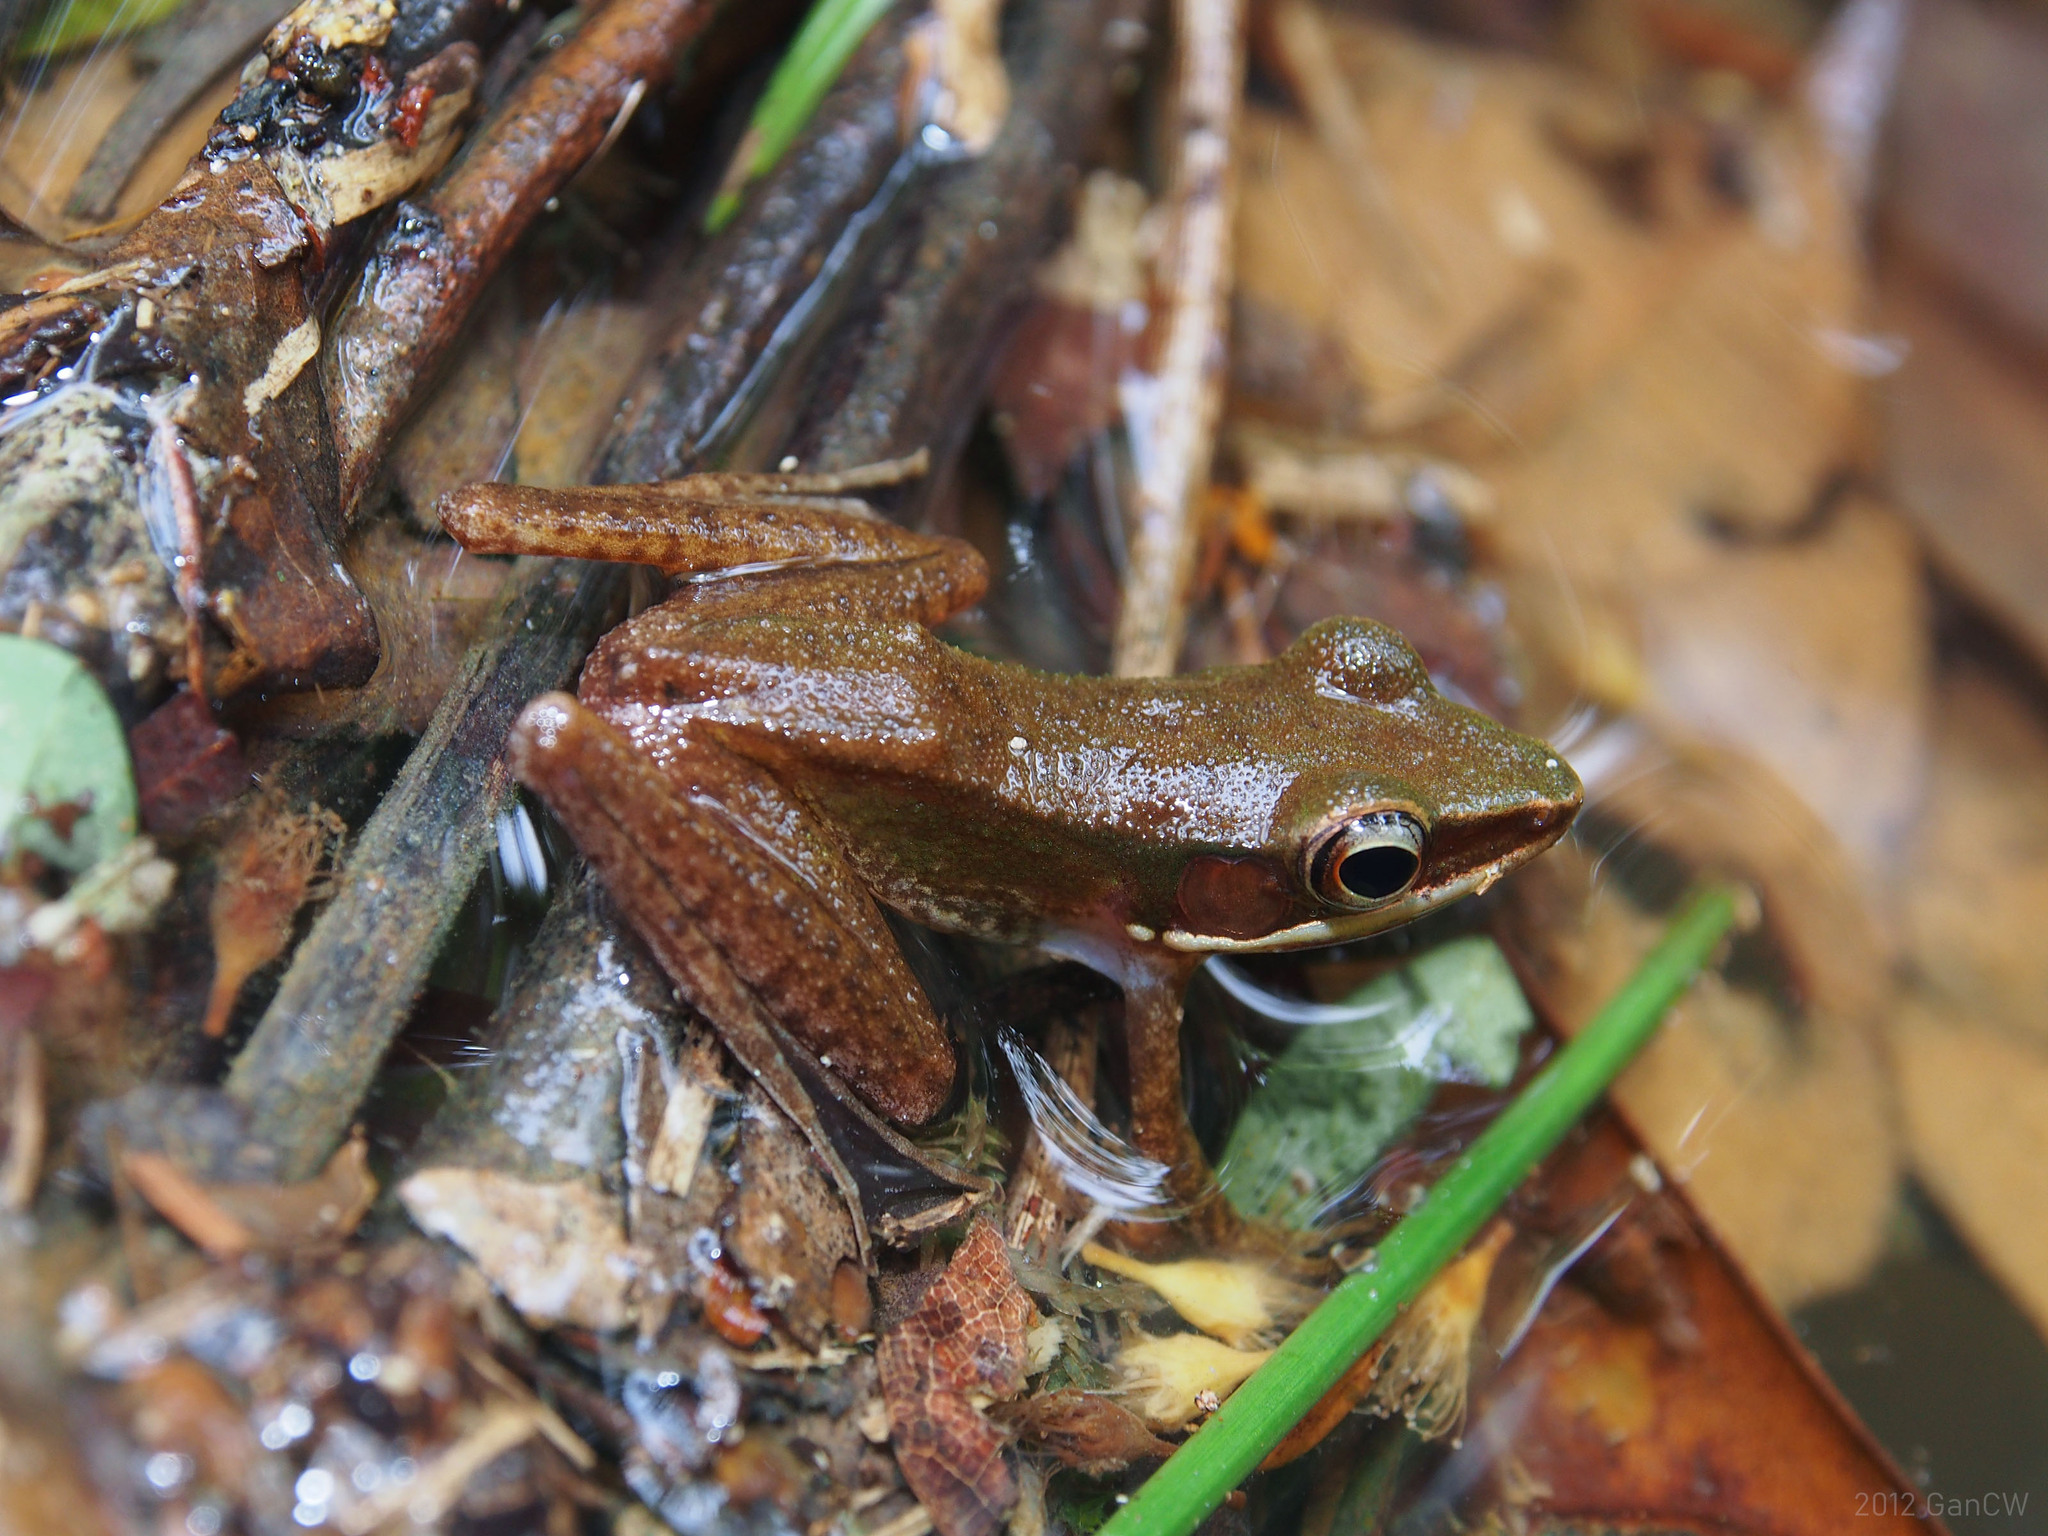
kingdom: Animalia
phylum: Chordata
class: Amphibia
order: Anura
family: Ranidae
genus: Chalcorana
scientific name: Chalcorana labialis
